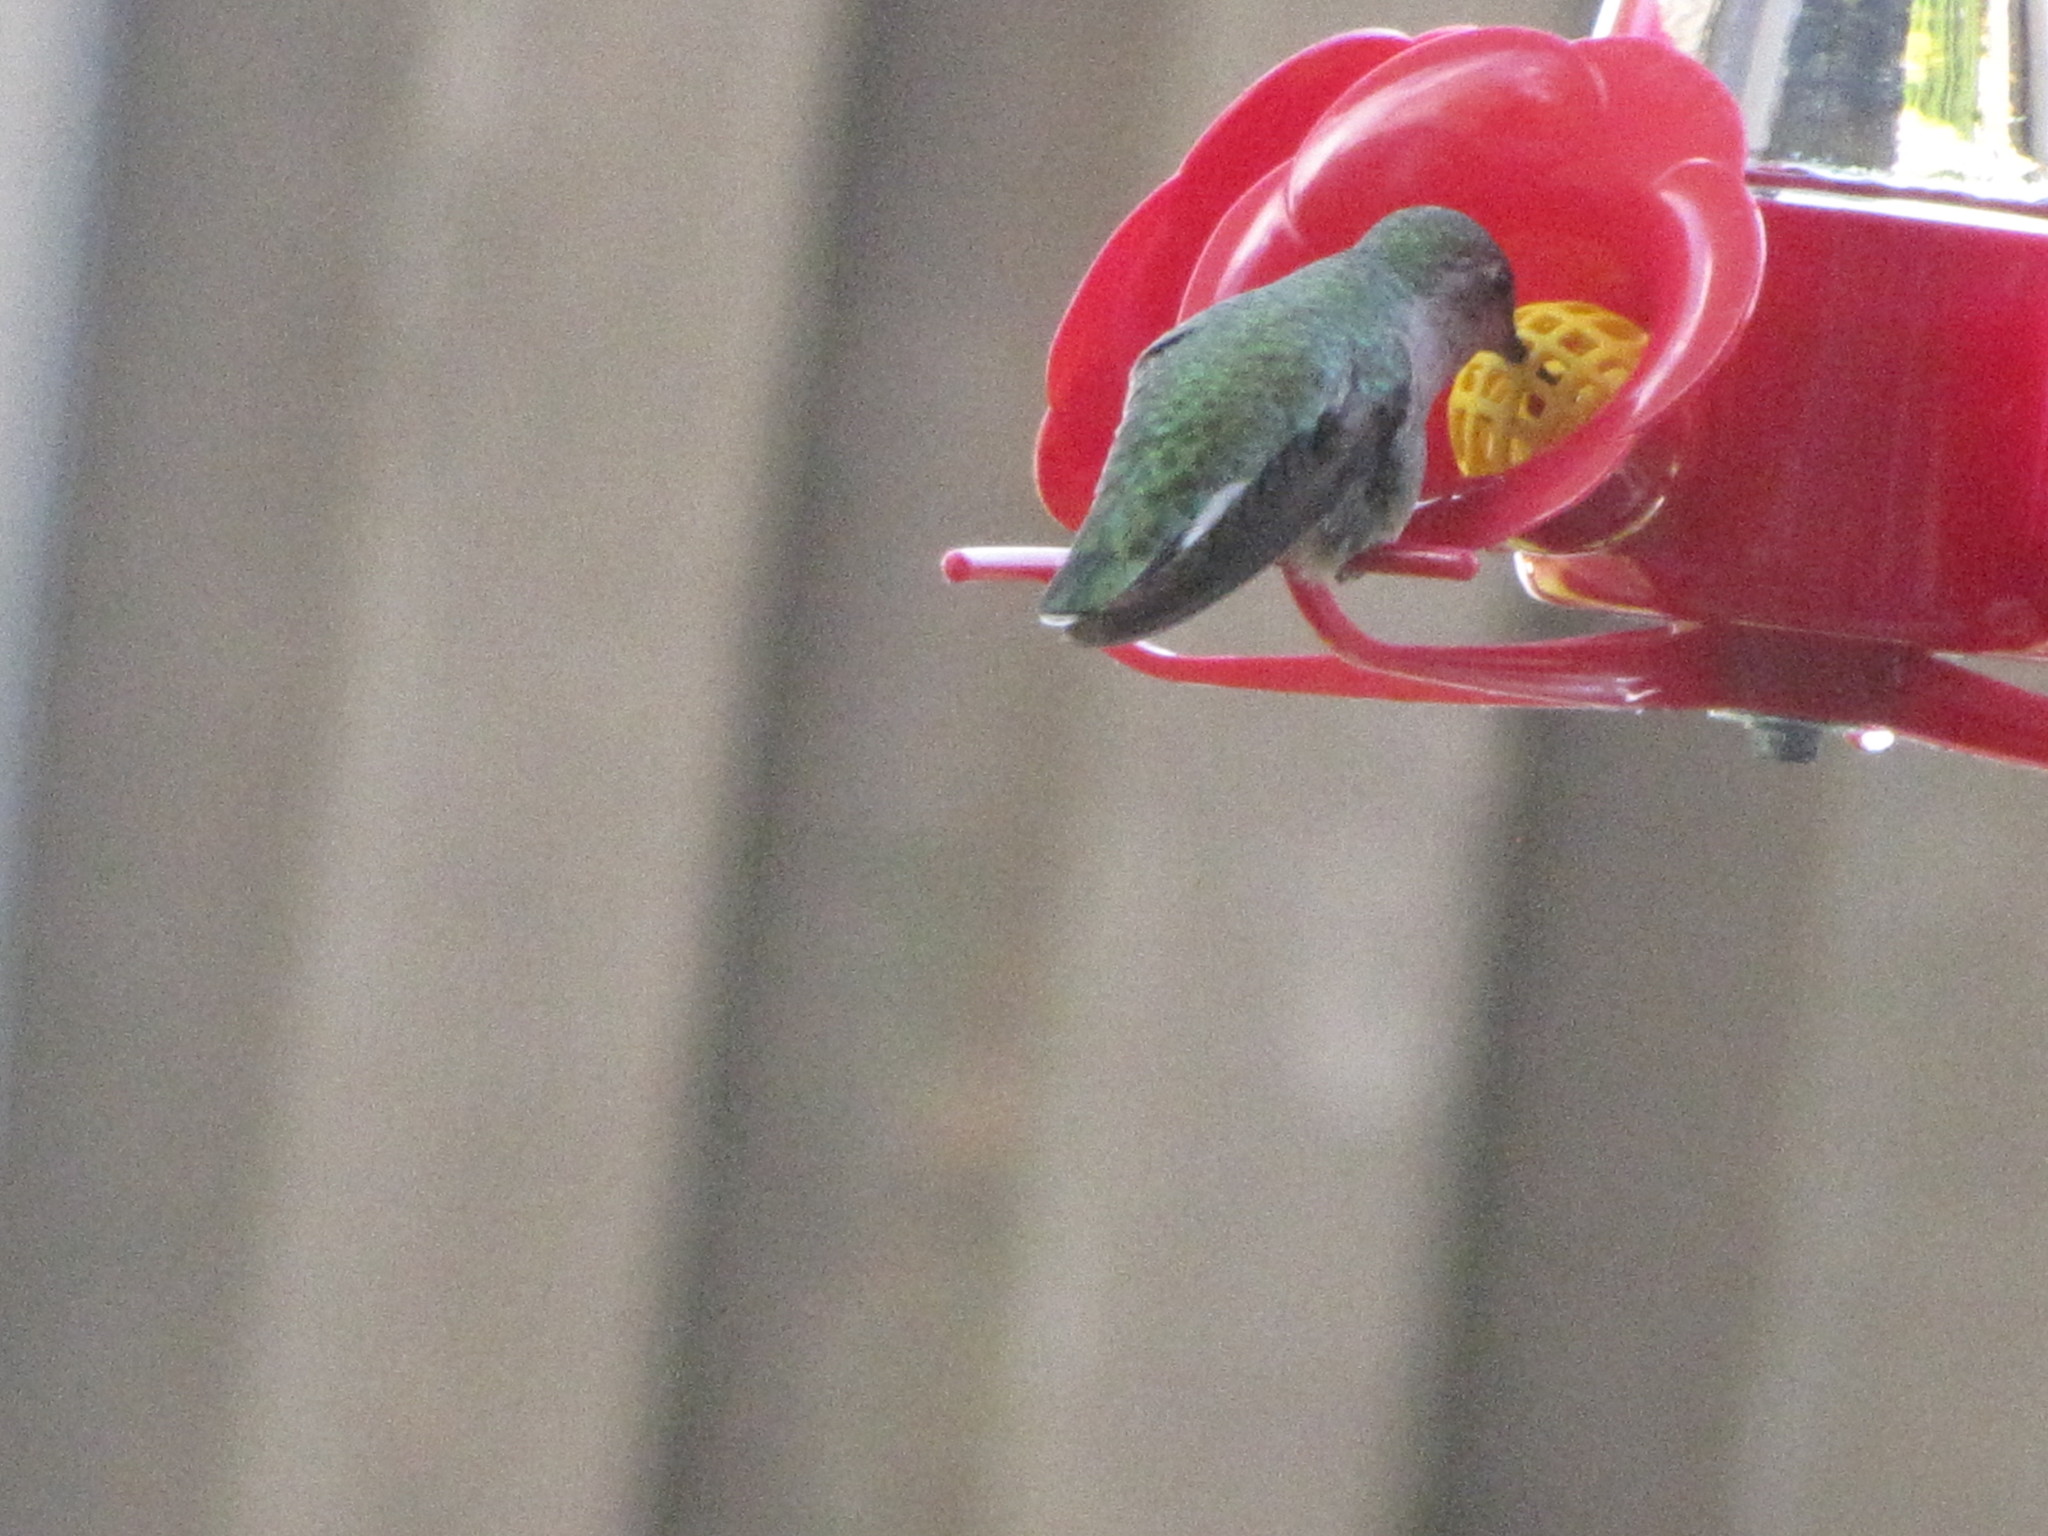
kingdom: Animalia
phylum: Chordata
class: Aves
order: Apodiformes
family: Trochilidae
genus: Calypte
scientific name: Calypte anna
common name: Anna's hummingbird
